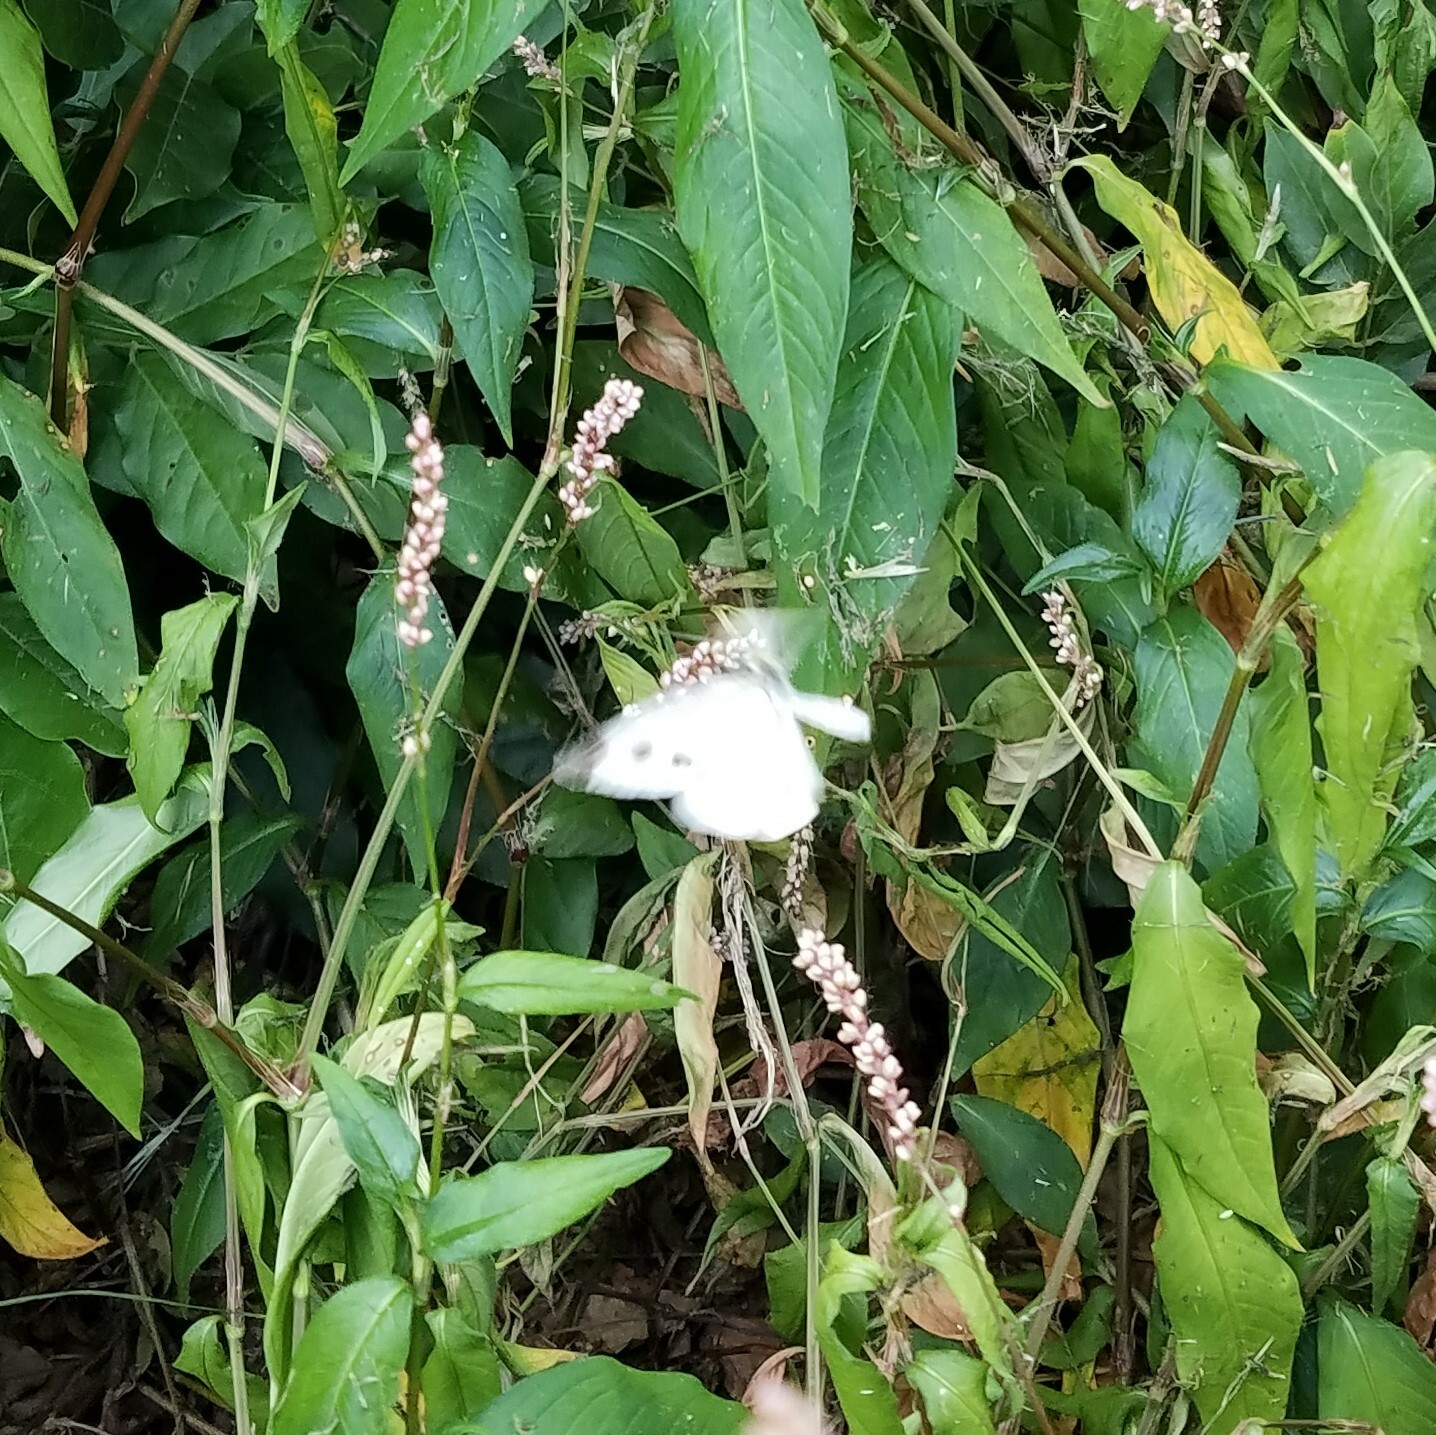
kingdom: Animalia
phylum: Arthropoda
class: Insecta
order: Lepidoptera
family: Pieridae
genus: Pieris
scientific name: Pieris rapae
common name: Small white
